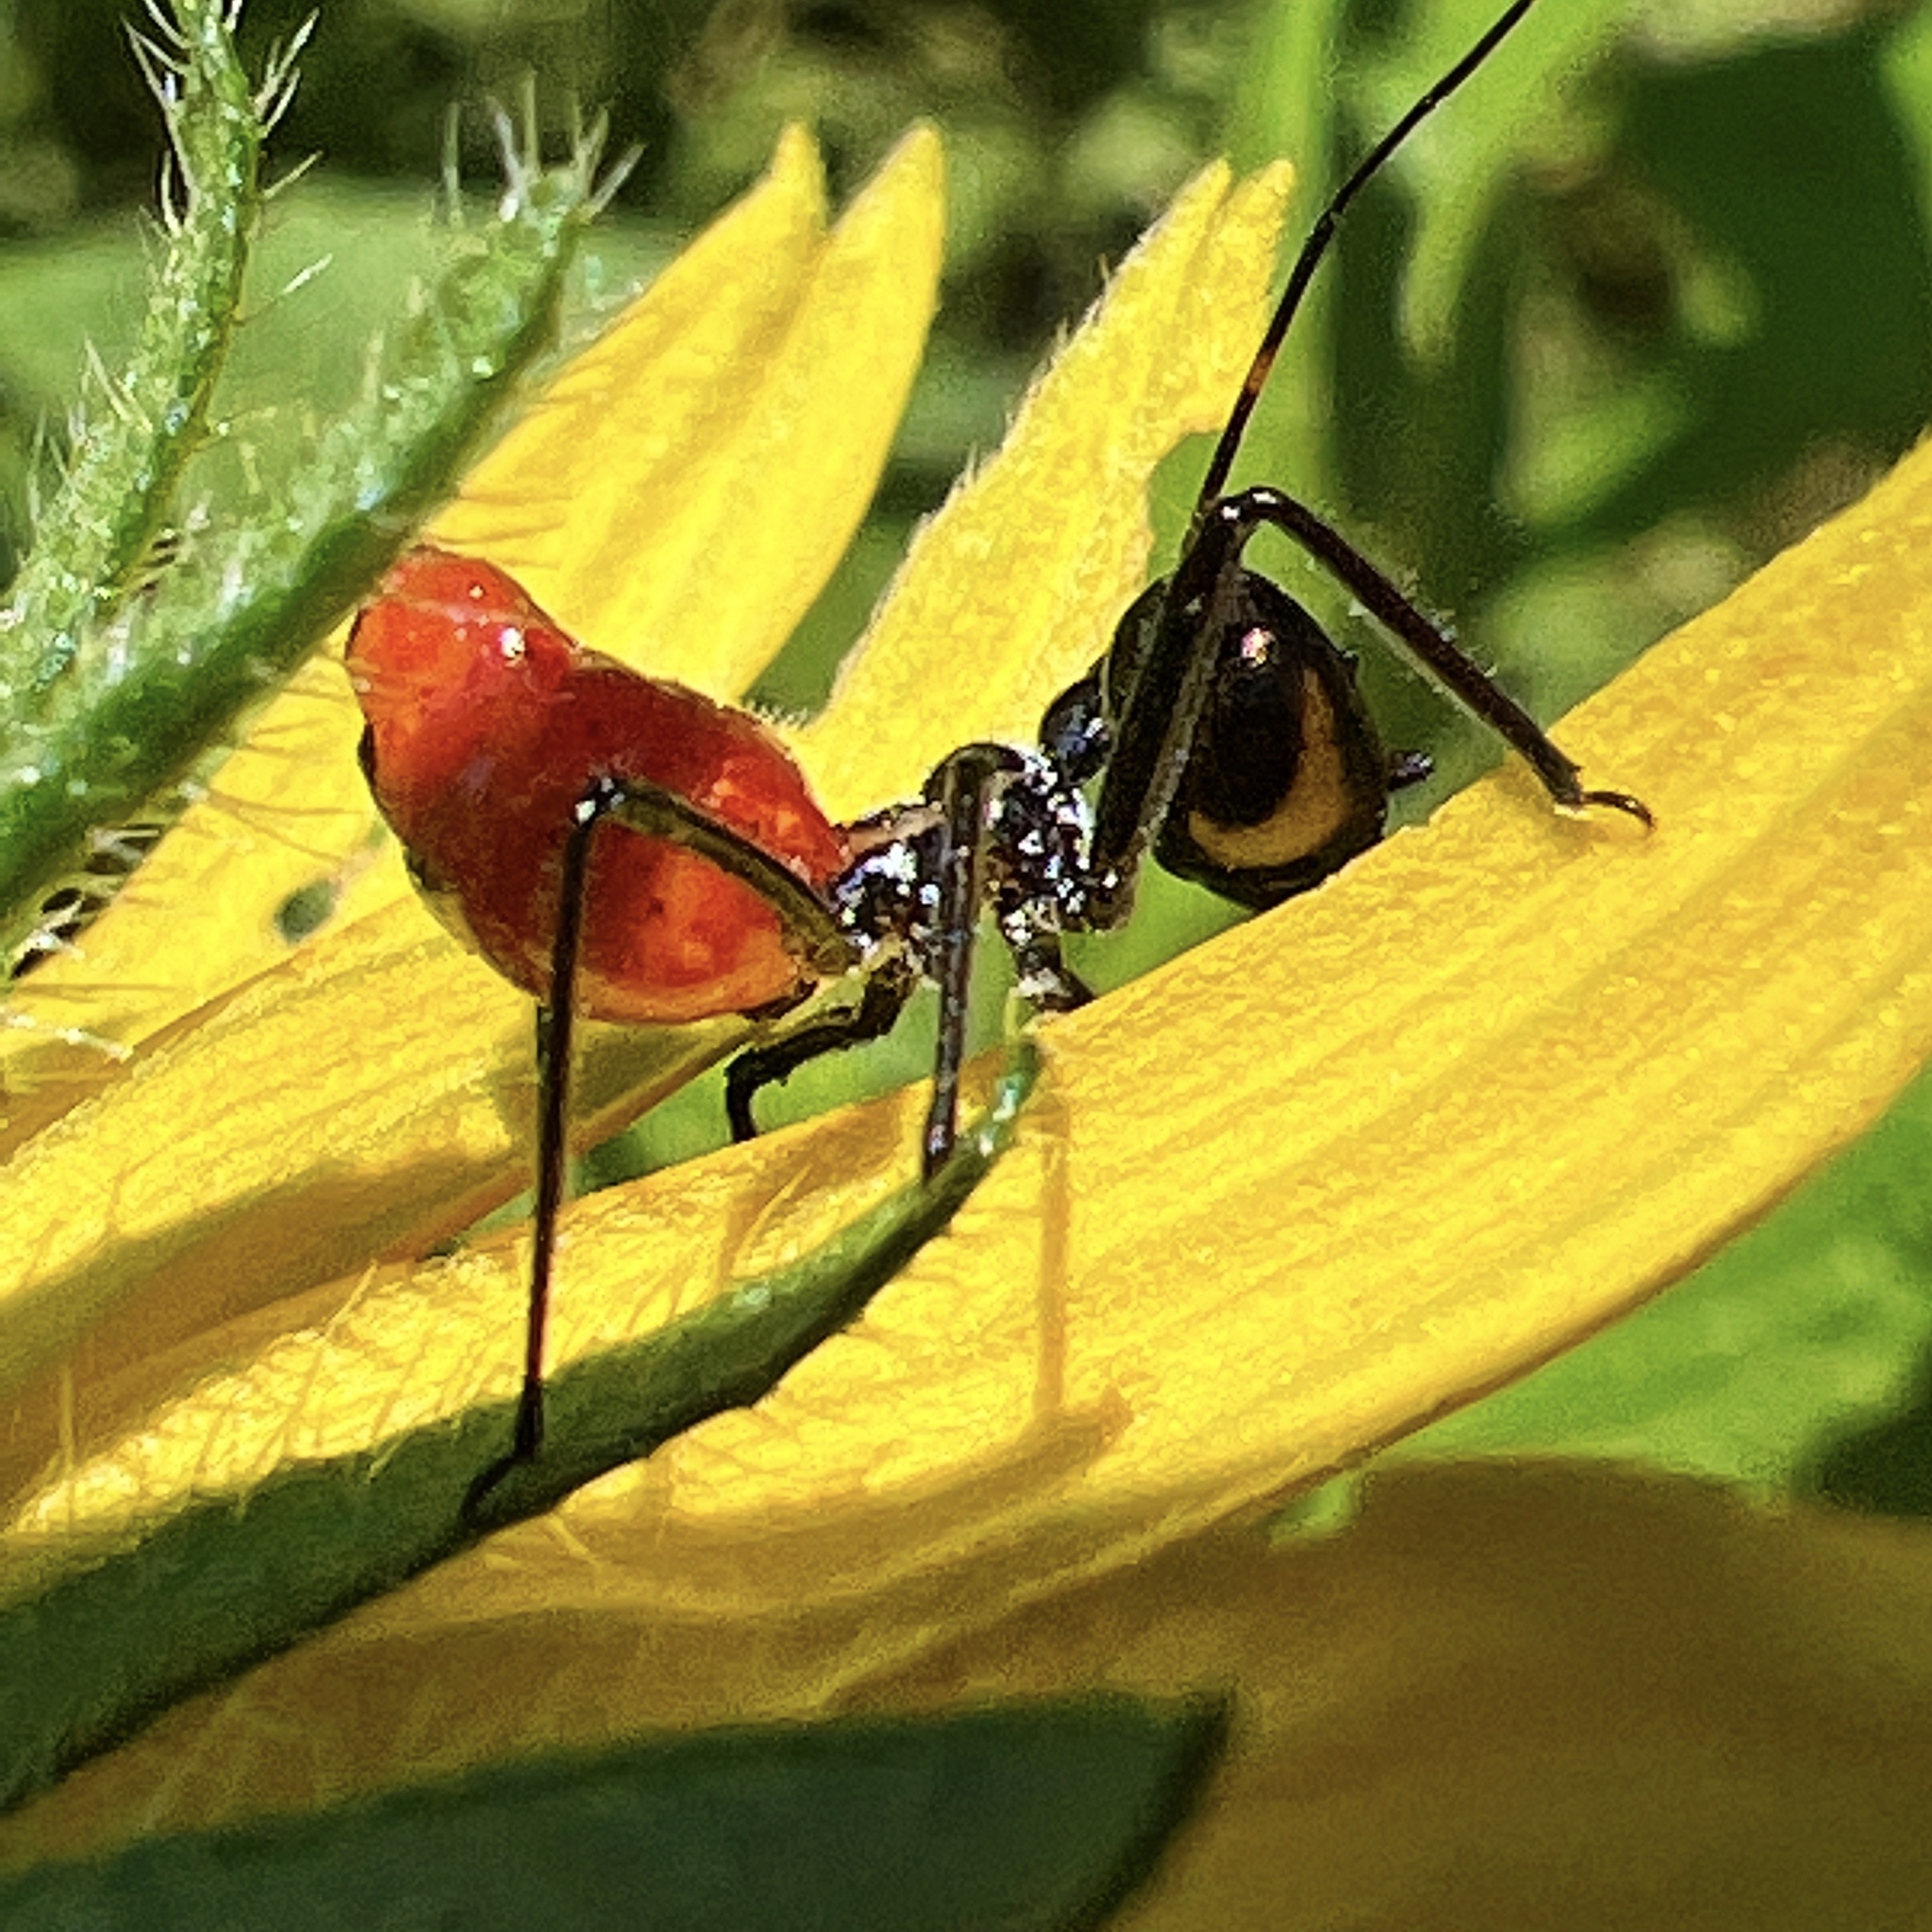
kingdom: Animalia
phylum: Arthropoda
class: Insecta
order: Hemiptera
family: Reduviidae
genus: Arilus
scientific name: Arilus cristatus
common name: North american wheel bug
